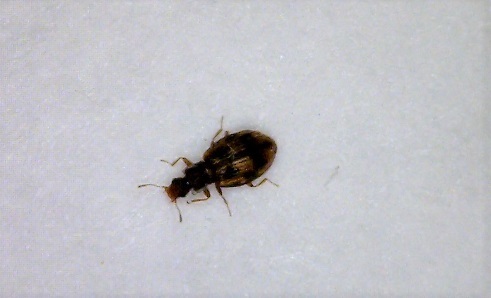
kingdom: Animalia
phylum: Arthropoda
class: Insecta
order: Coleoptera
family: Latridiidae
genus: Cartodere
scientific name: Cartodere bifasciata
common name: Plaster beetle
